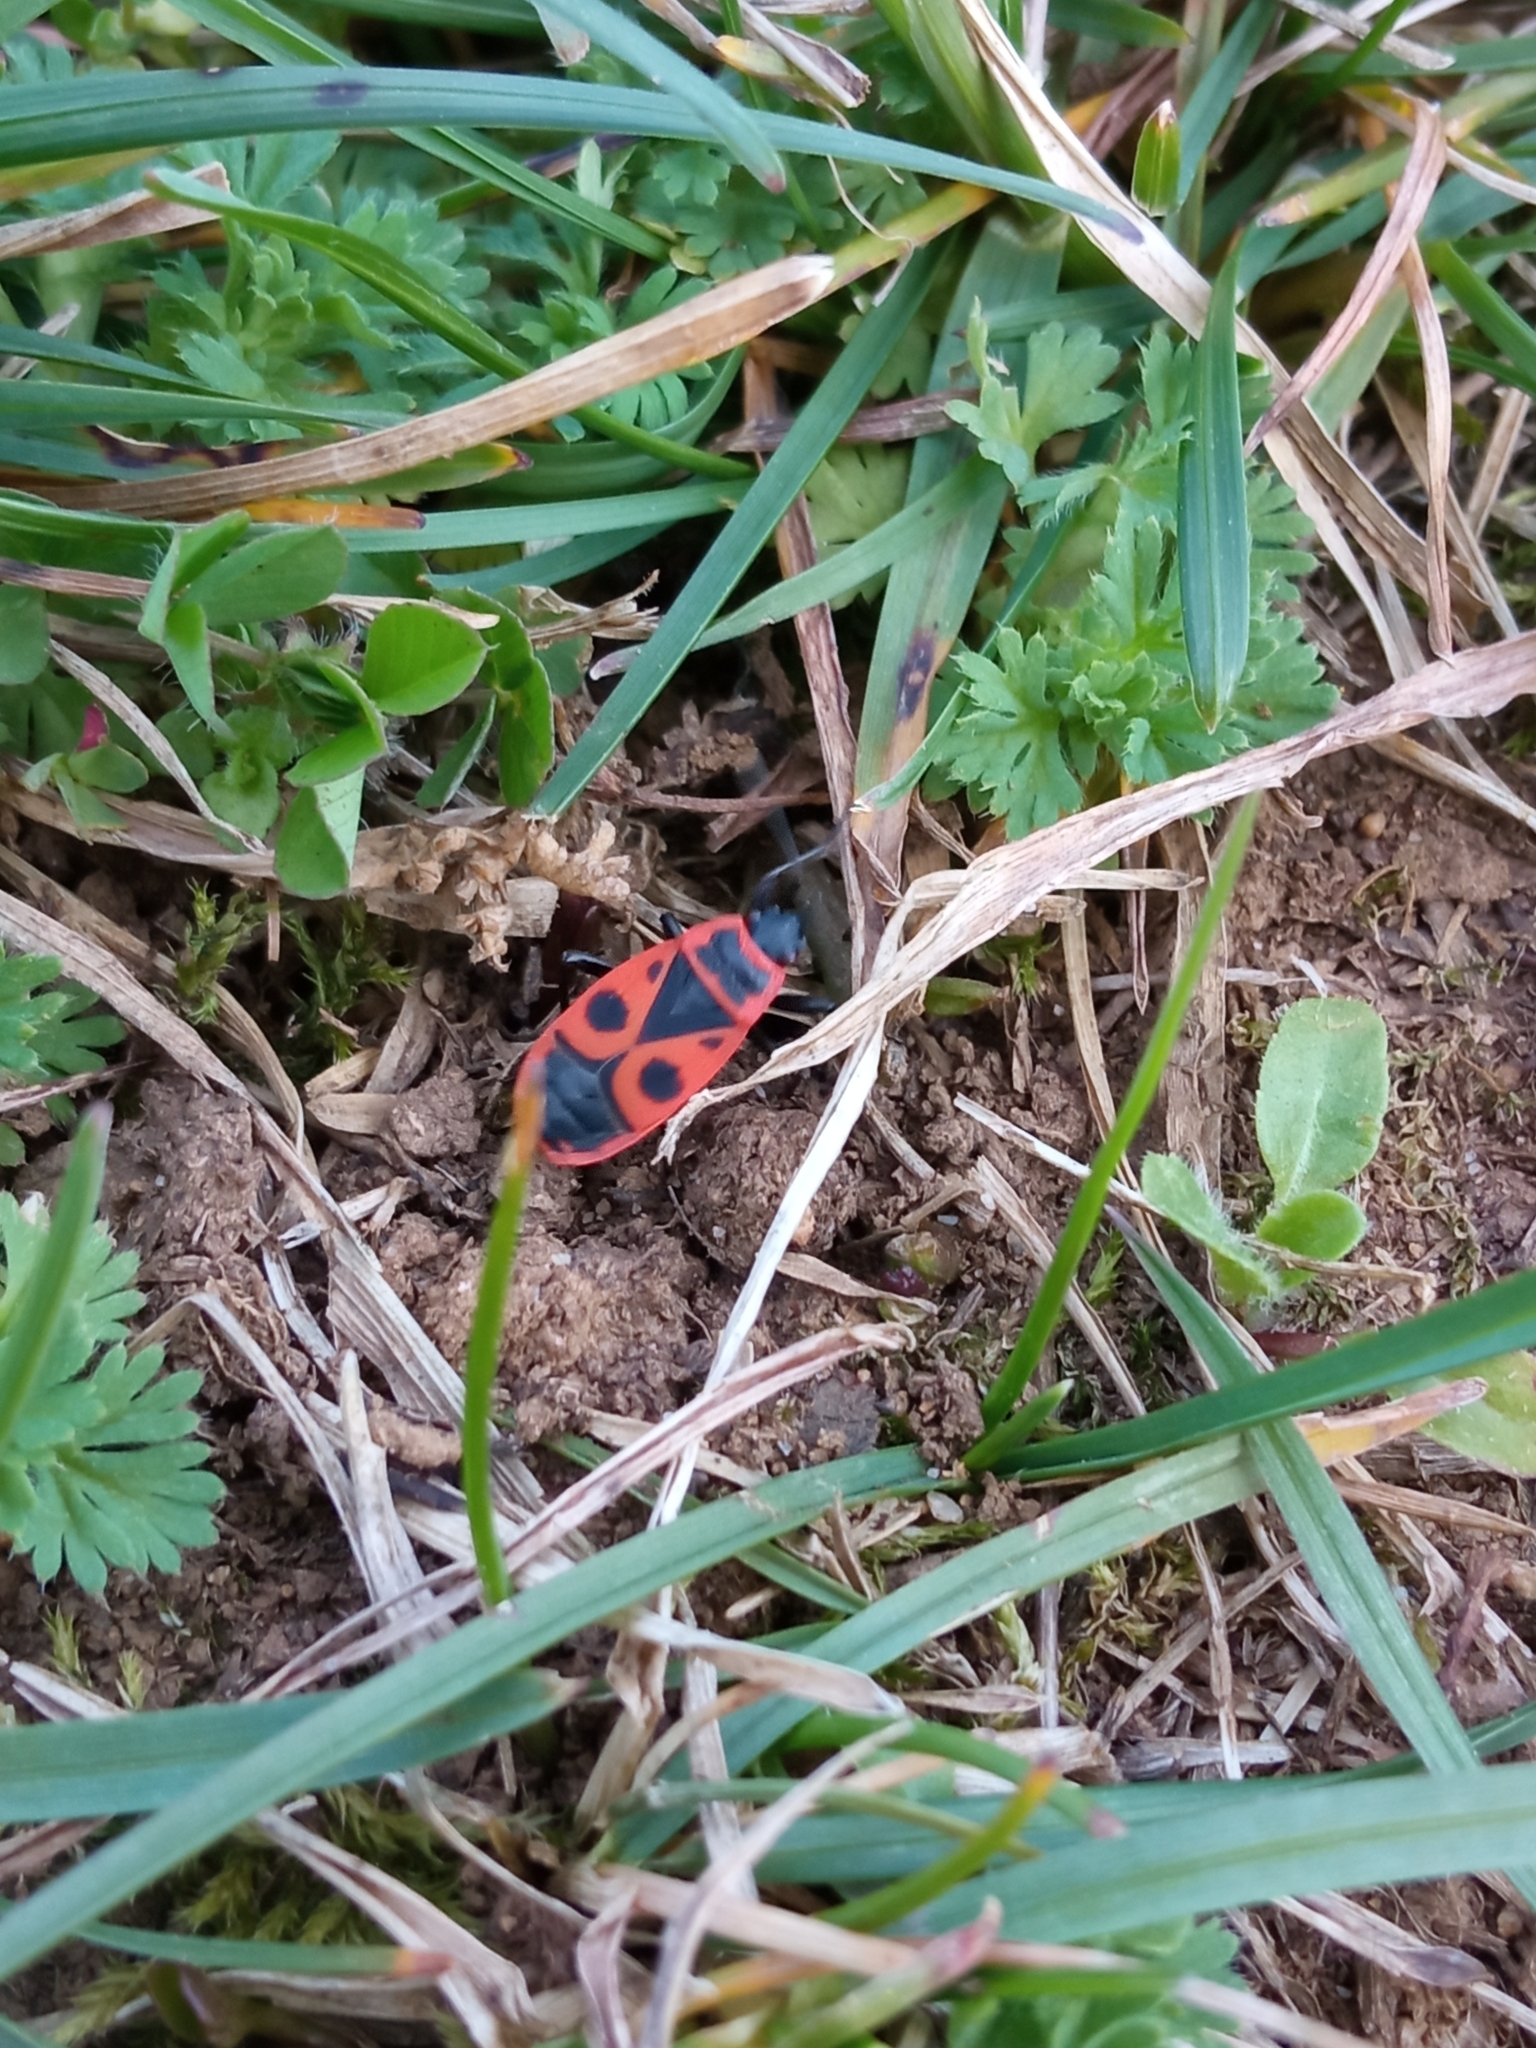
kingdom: Animalia
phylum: Arthropoda
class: Insecta
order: Hemiptera
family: Pyrrhocoridae
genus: Pyrrhocoris
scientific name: Pyrrhocoris apterus
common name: Firebug
